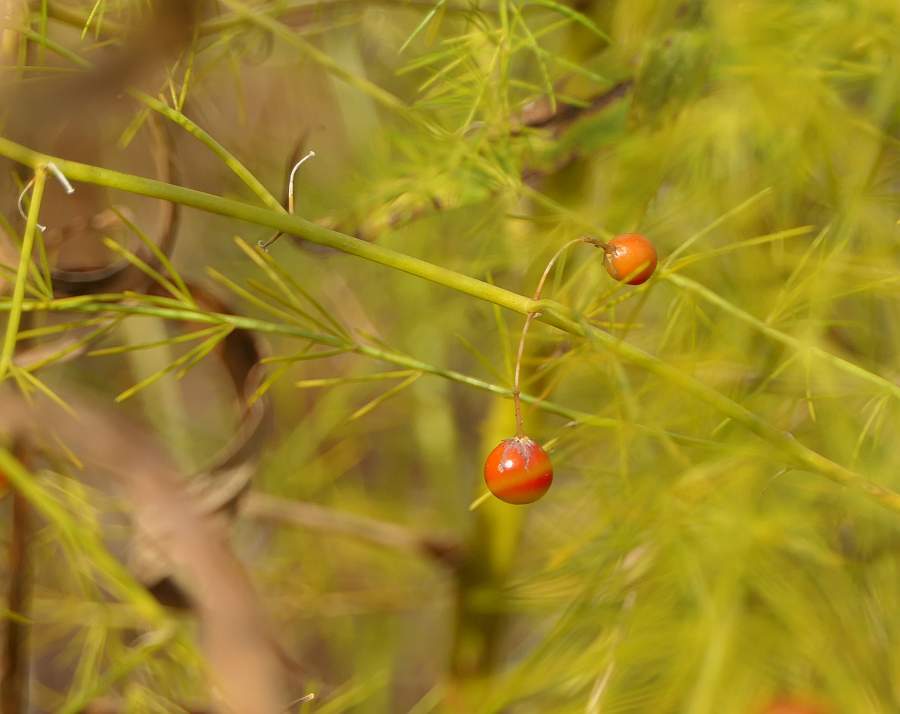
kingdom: Plantae
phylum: Tracheophyta
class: Liliopsida
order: Asparagales
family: Asparagaceae
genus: Asparagus
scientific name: Asparagus officinalis
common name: Garden asparagus
